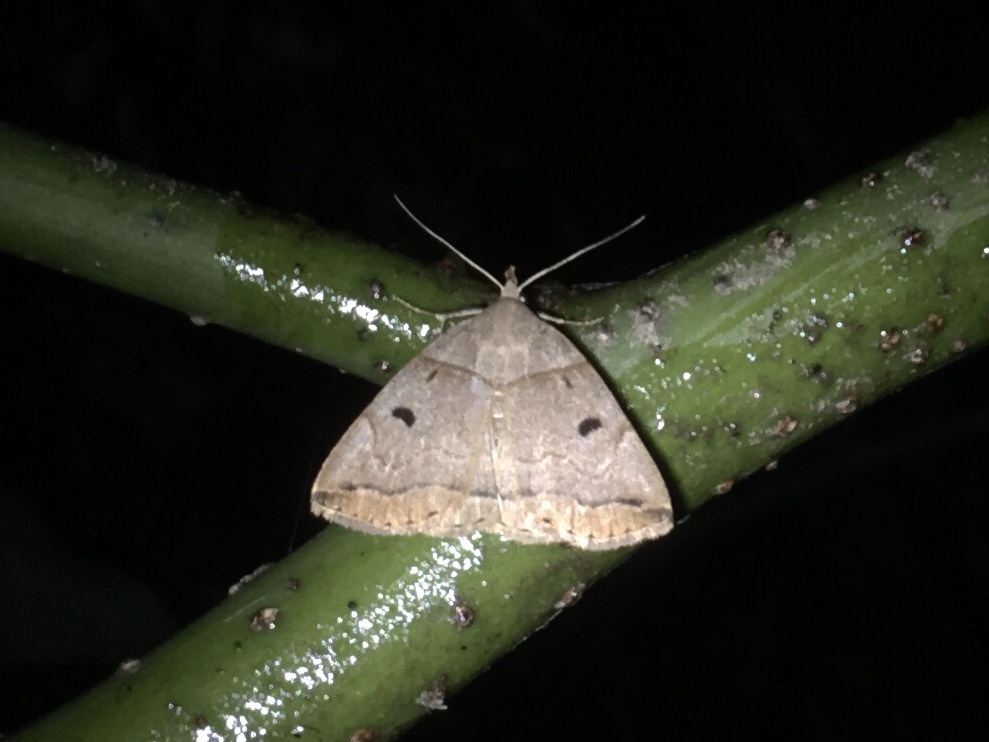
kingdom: Animalia
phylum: Arthropoda
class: Insecta
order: Lepidoptera
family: Erebidae
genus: Zanclognatha
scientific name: Zanclognatha laevigata
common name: Variable fan-foot
